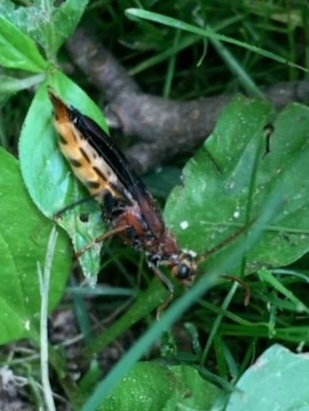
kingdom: Animalia
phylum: Arthropoda
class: Insecta
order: Coleoptera
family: Cerambycidae
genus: Bellamira
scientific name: Bellamira scalaris
